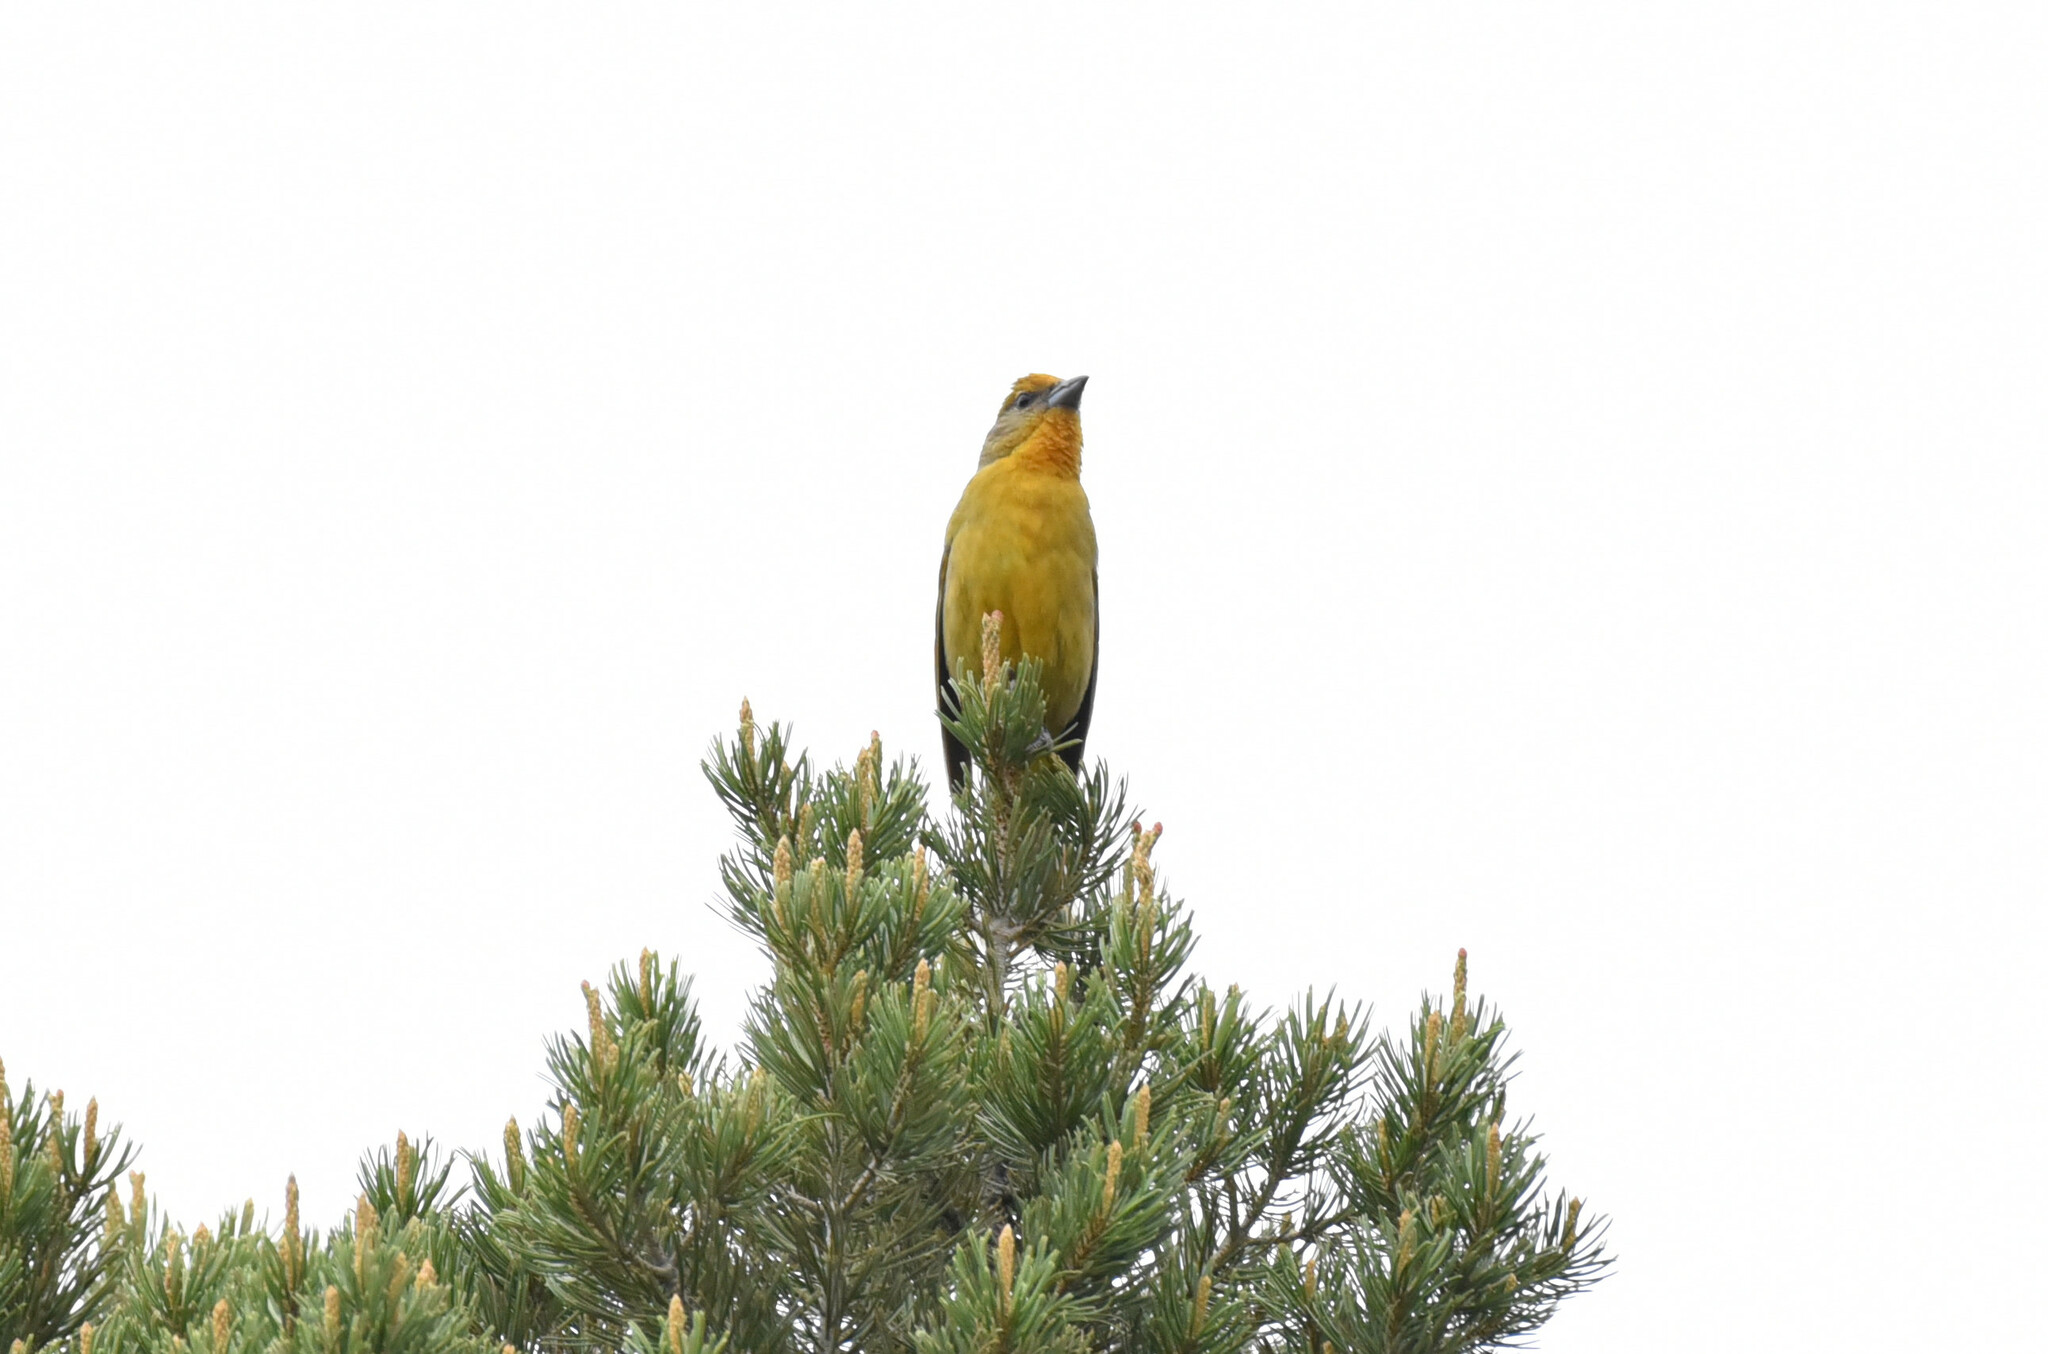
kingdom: Animalia
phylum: Chordata
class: Aves
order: Passeriformes
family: Cardinalidae
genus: Piranga
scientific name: Piranga flava
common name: Red tanager
